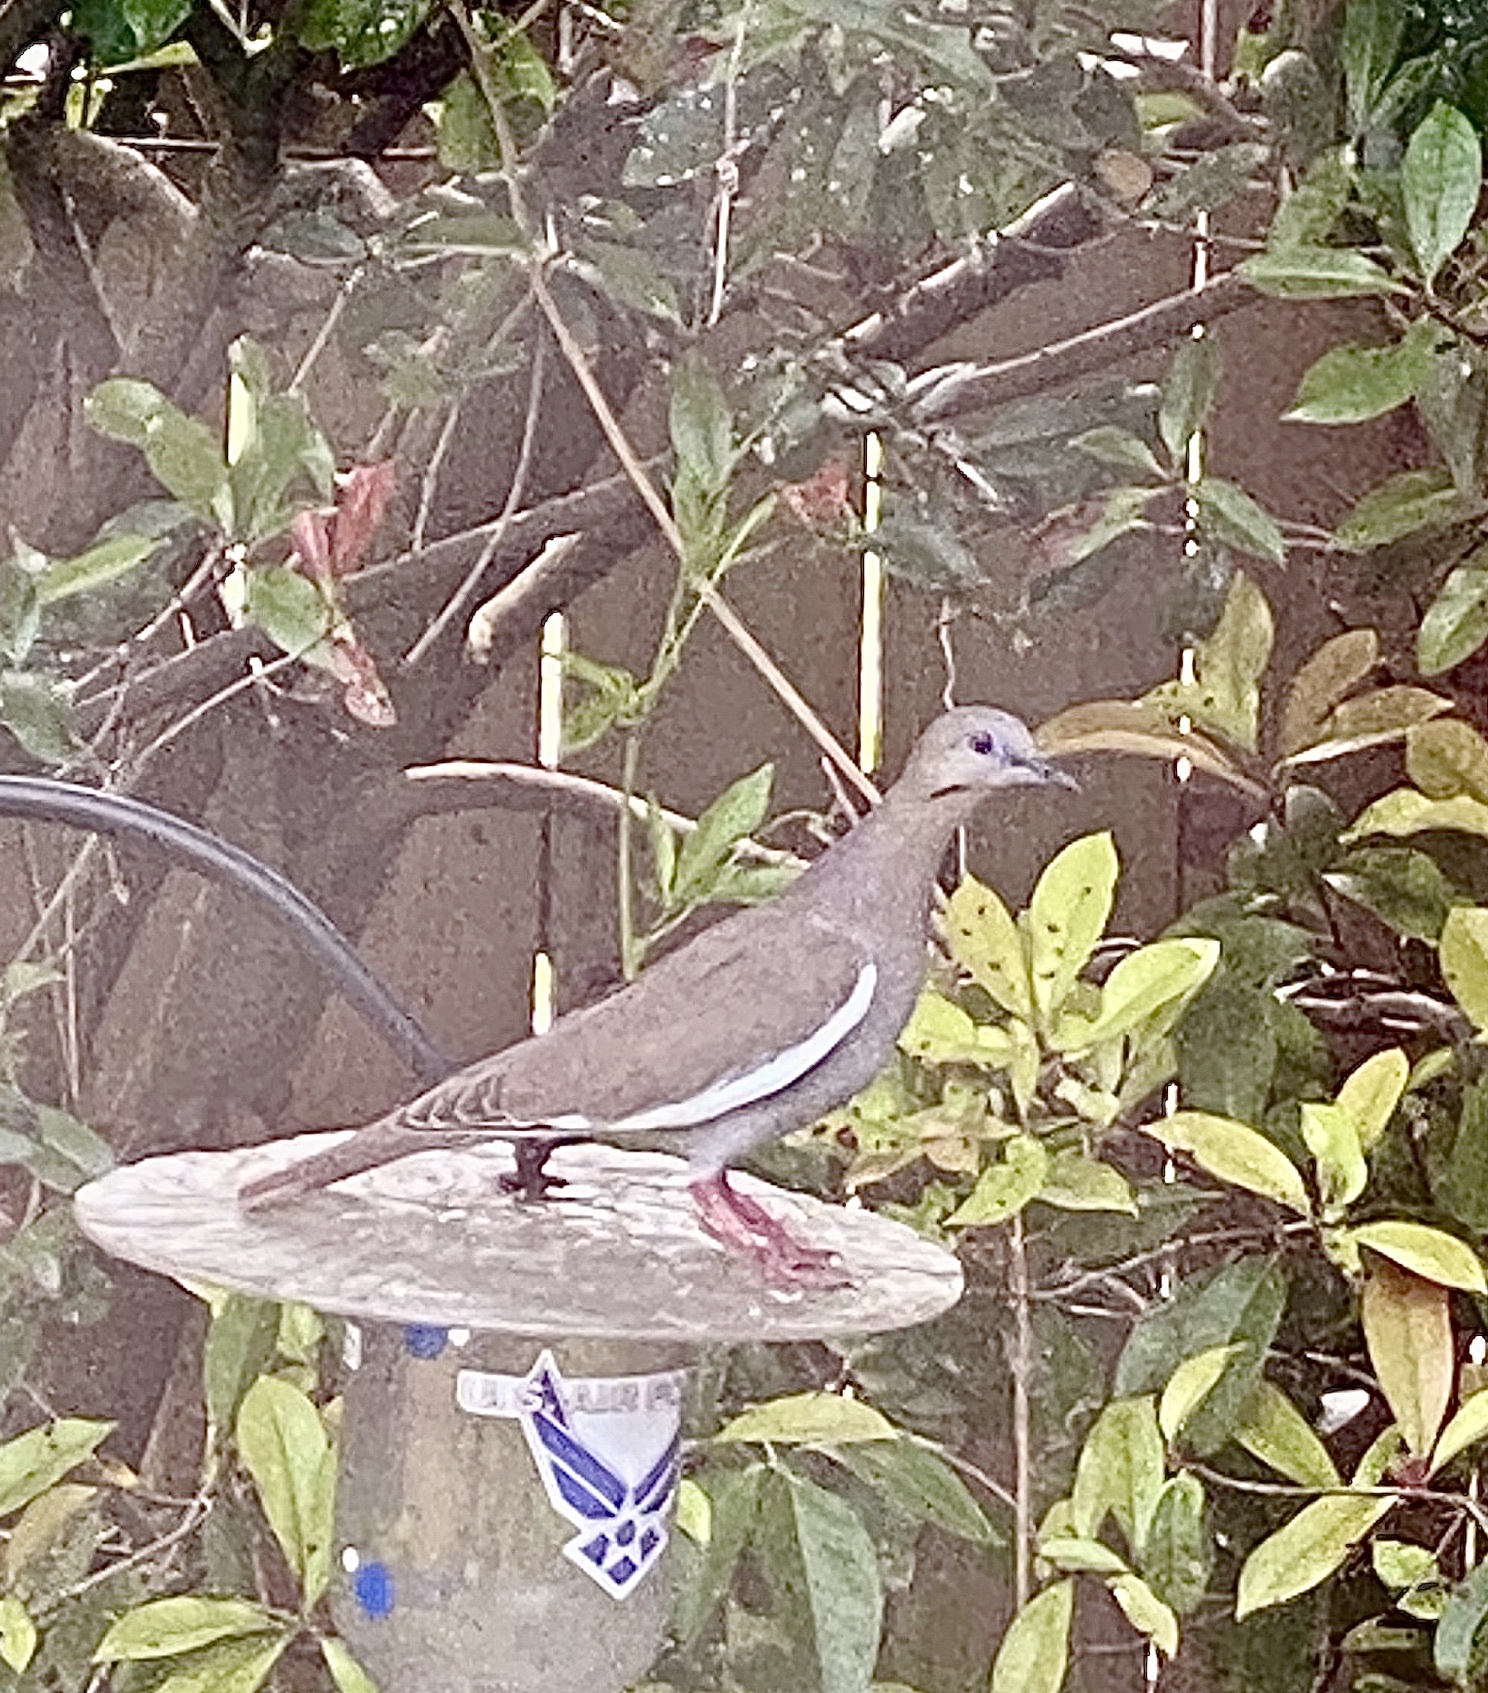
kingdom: Animalia
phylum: Chordata
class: Aves
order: Columbiformes
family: Columbidae
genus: Zenaida
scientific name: Zenaida asiatica
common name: White-winged dove
